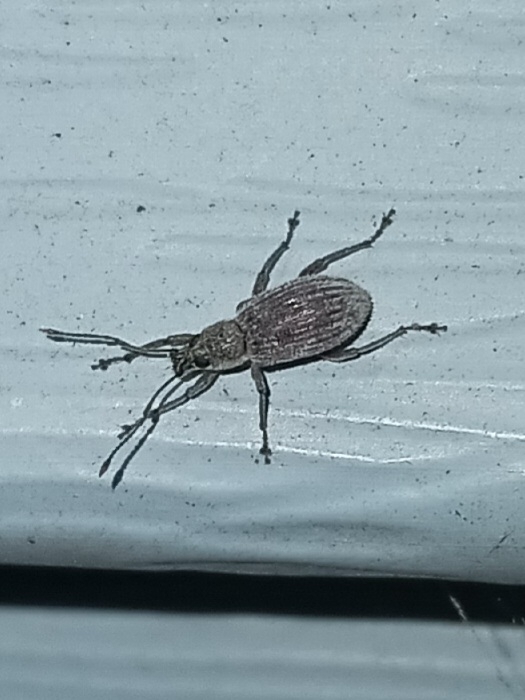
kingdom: Animalia
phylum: Arthropoda
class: Insecta
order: Coleoptera
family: Curculionidae
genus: Cyrtepistomus
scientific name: Cyrtepistomus castaneus
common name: Weevil
